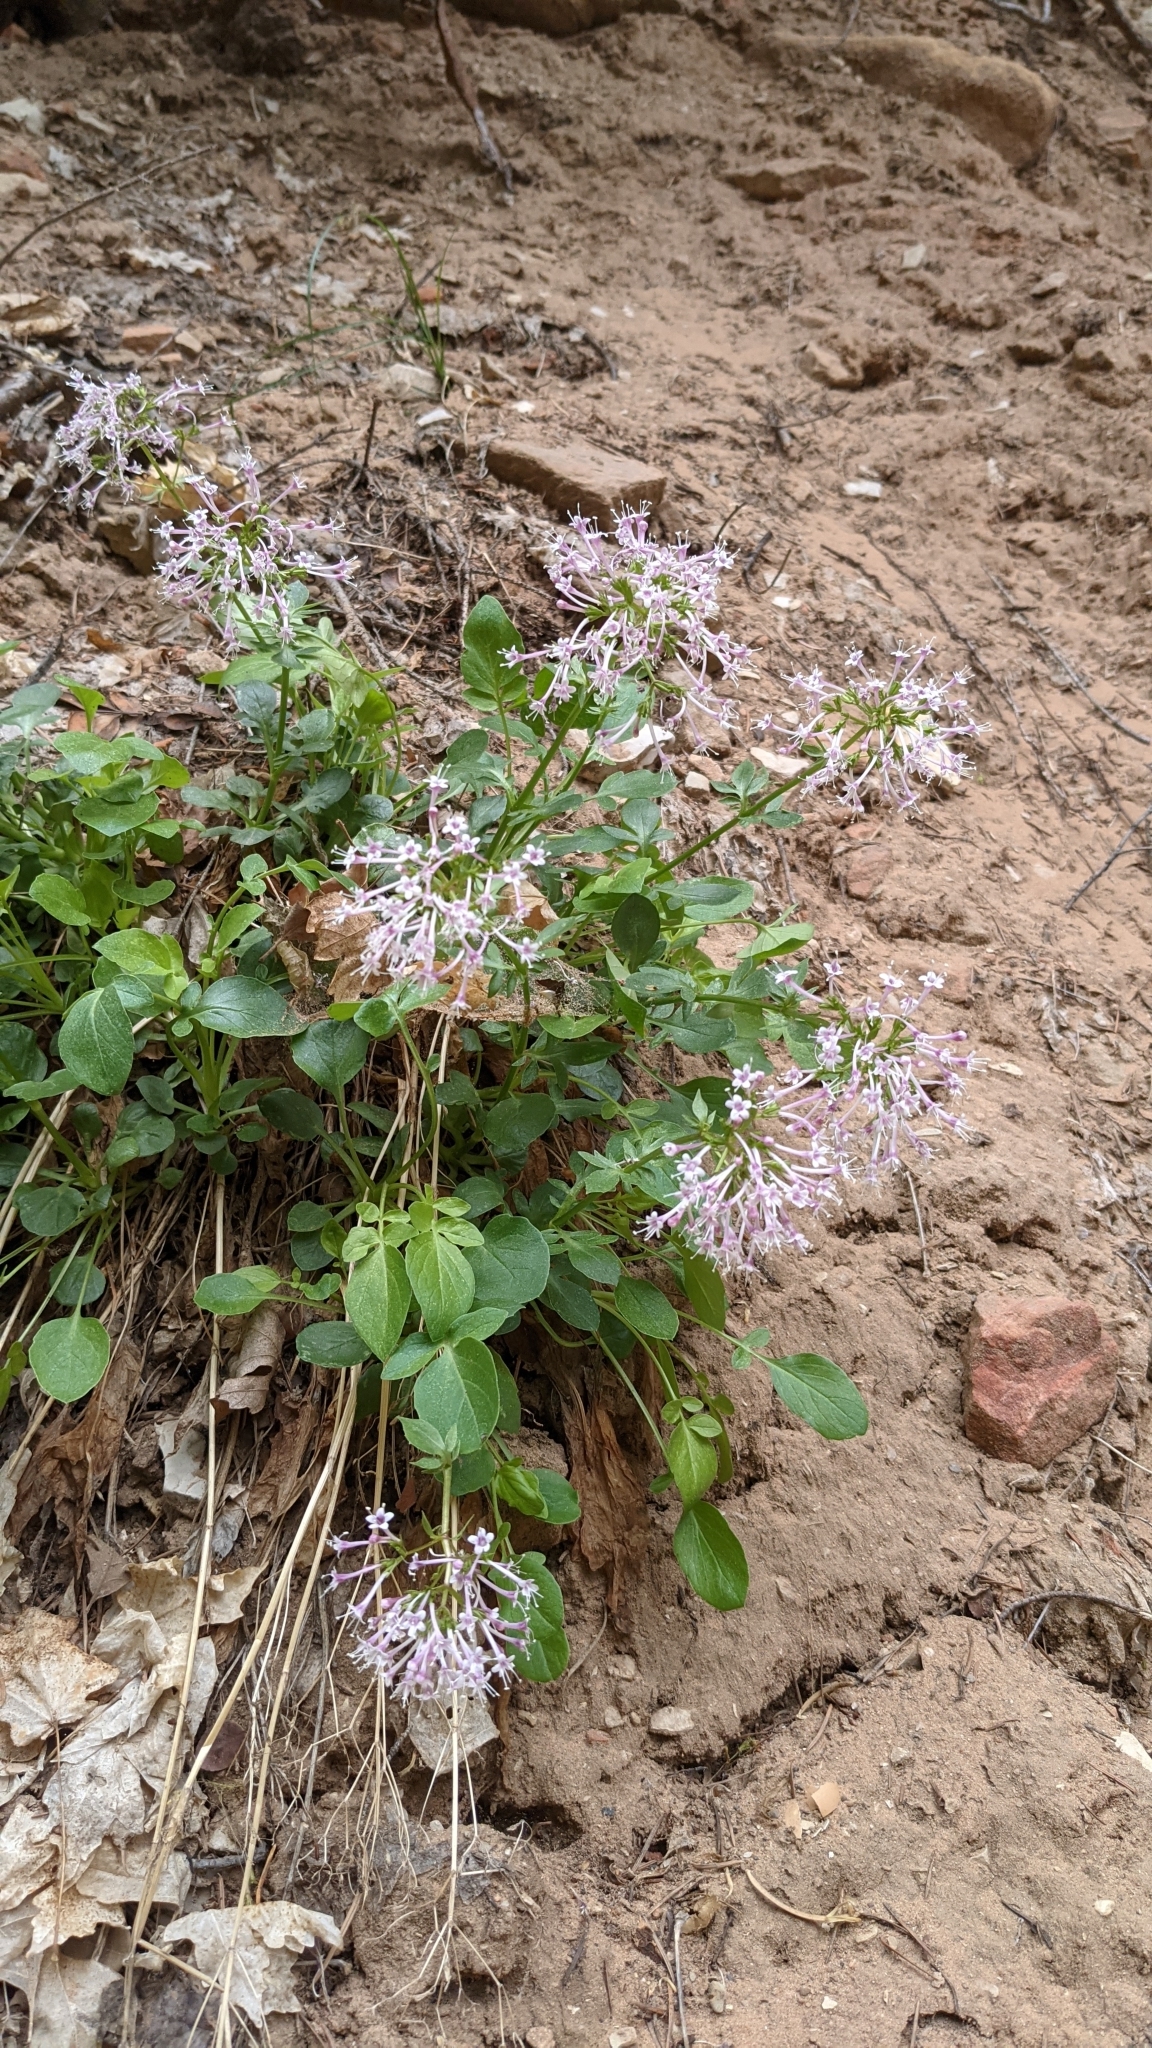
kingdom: Plantae
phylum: Tracheophyta
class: Magnoliopsida
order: Dipsacales
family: Caprifoliaceae
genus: Valeriana
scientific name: Valeriana arizonica
